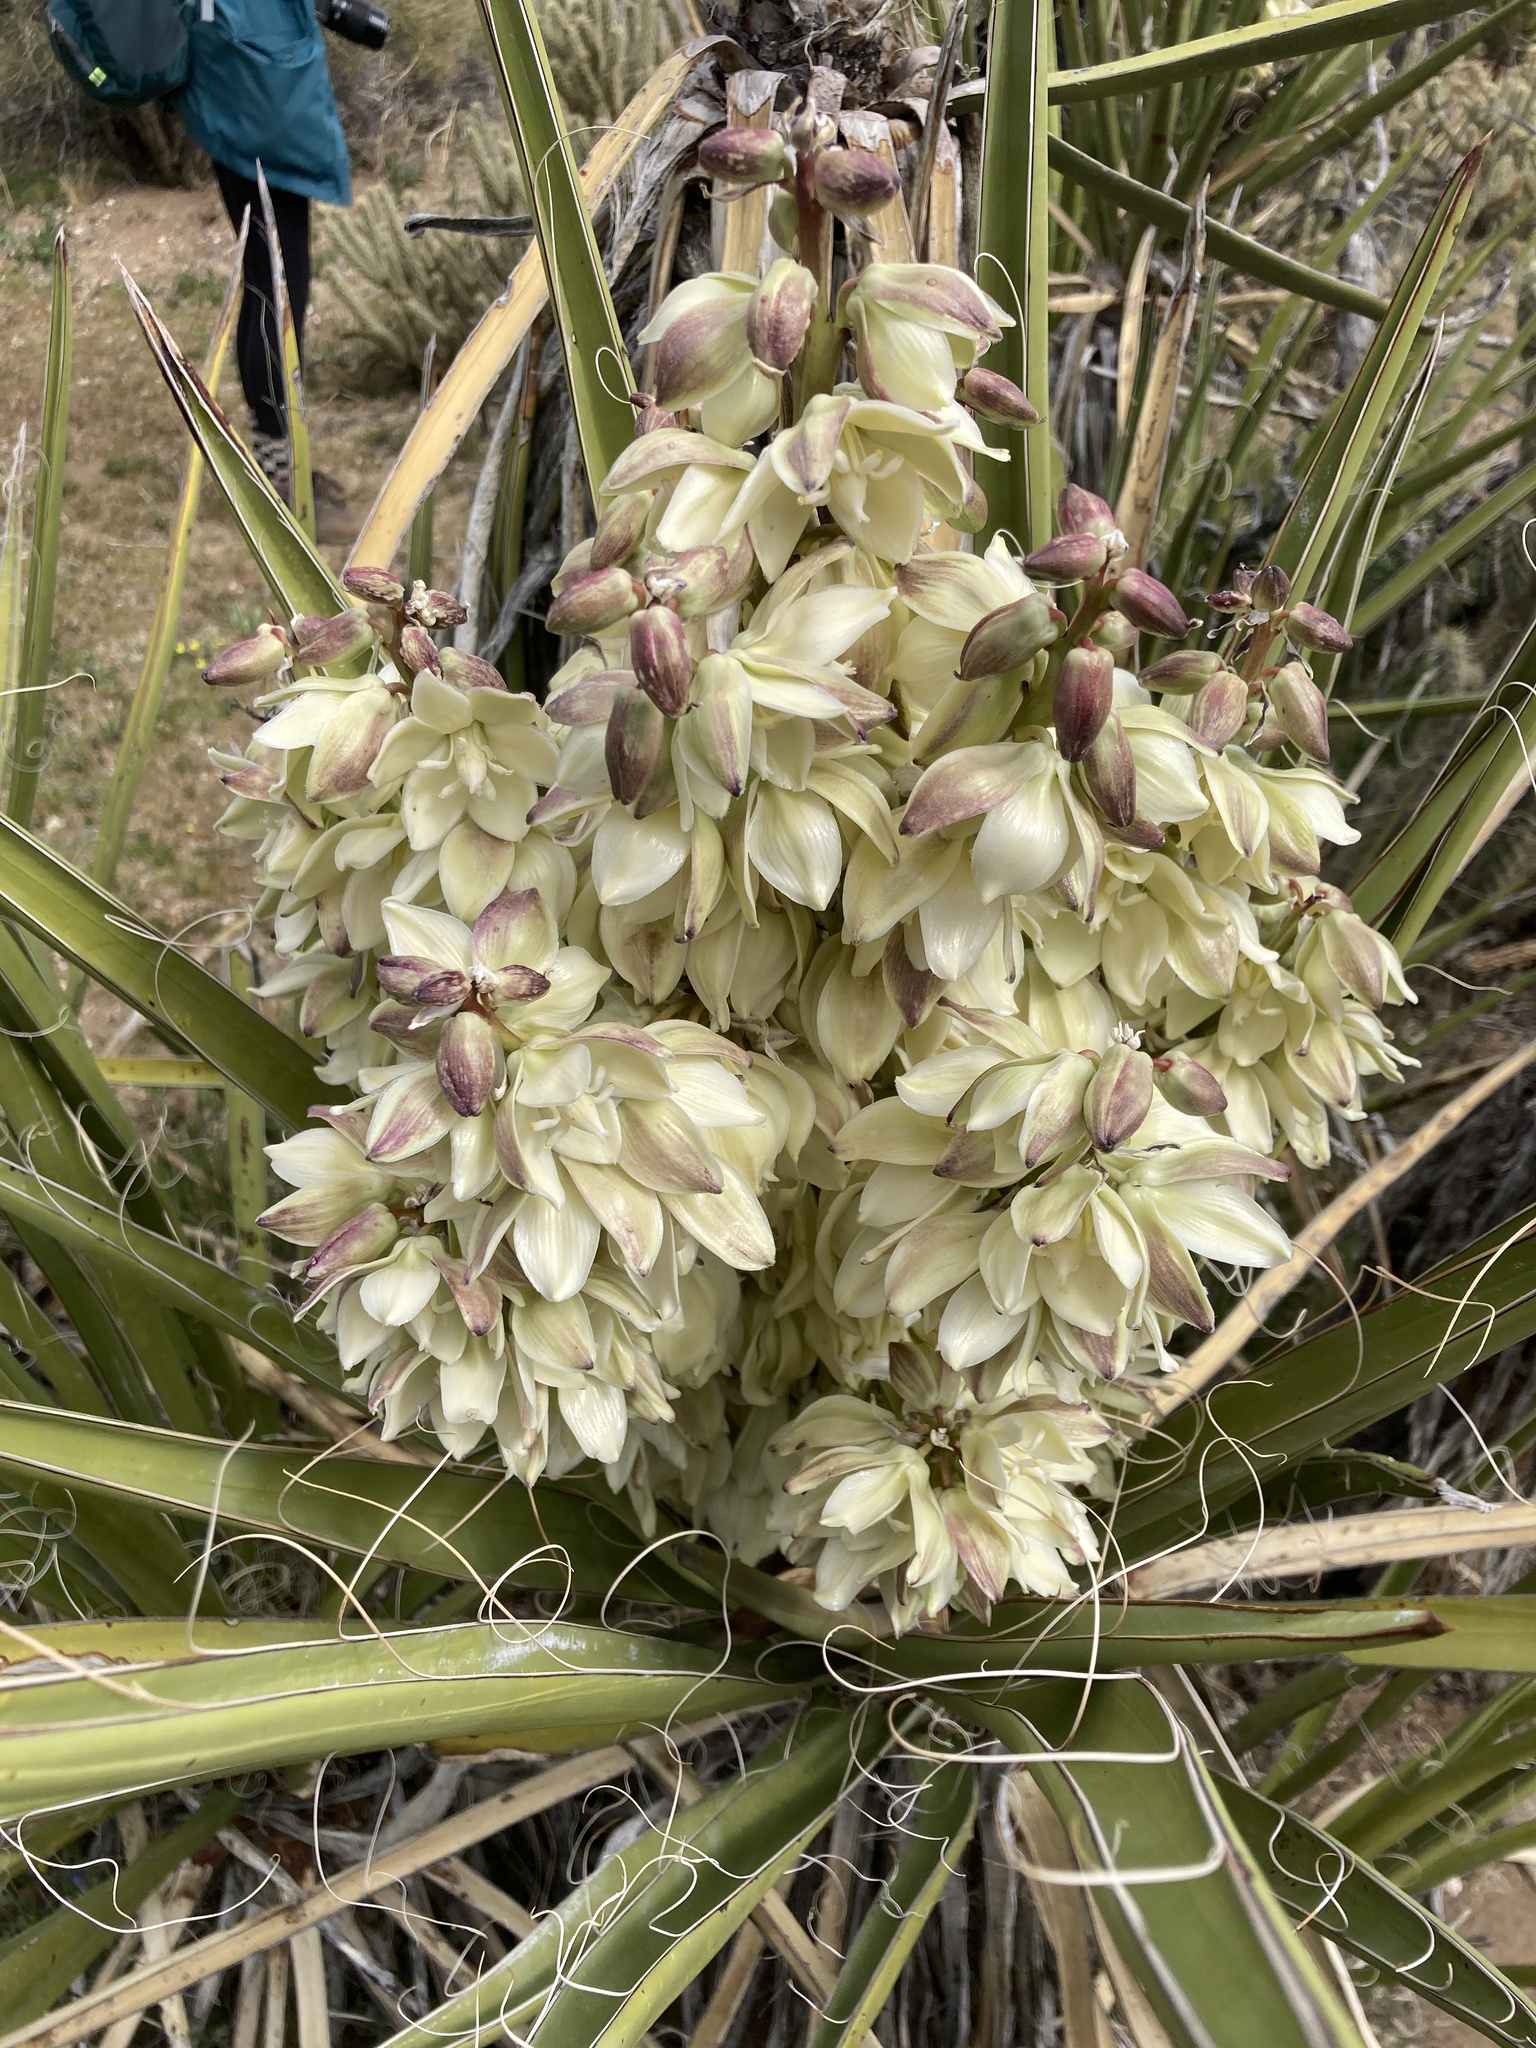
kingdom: Plantae
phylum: Tracheophyta
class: Liliopsida
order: Asparagales
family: Asparagaceae
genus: Yucca
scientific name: Yucca schidigera
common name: Mojave yucca
